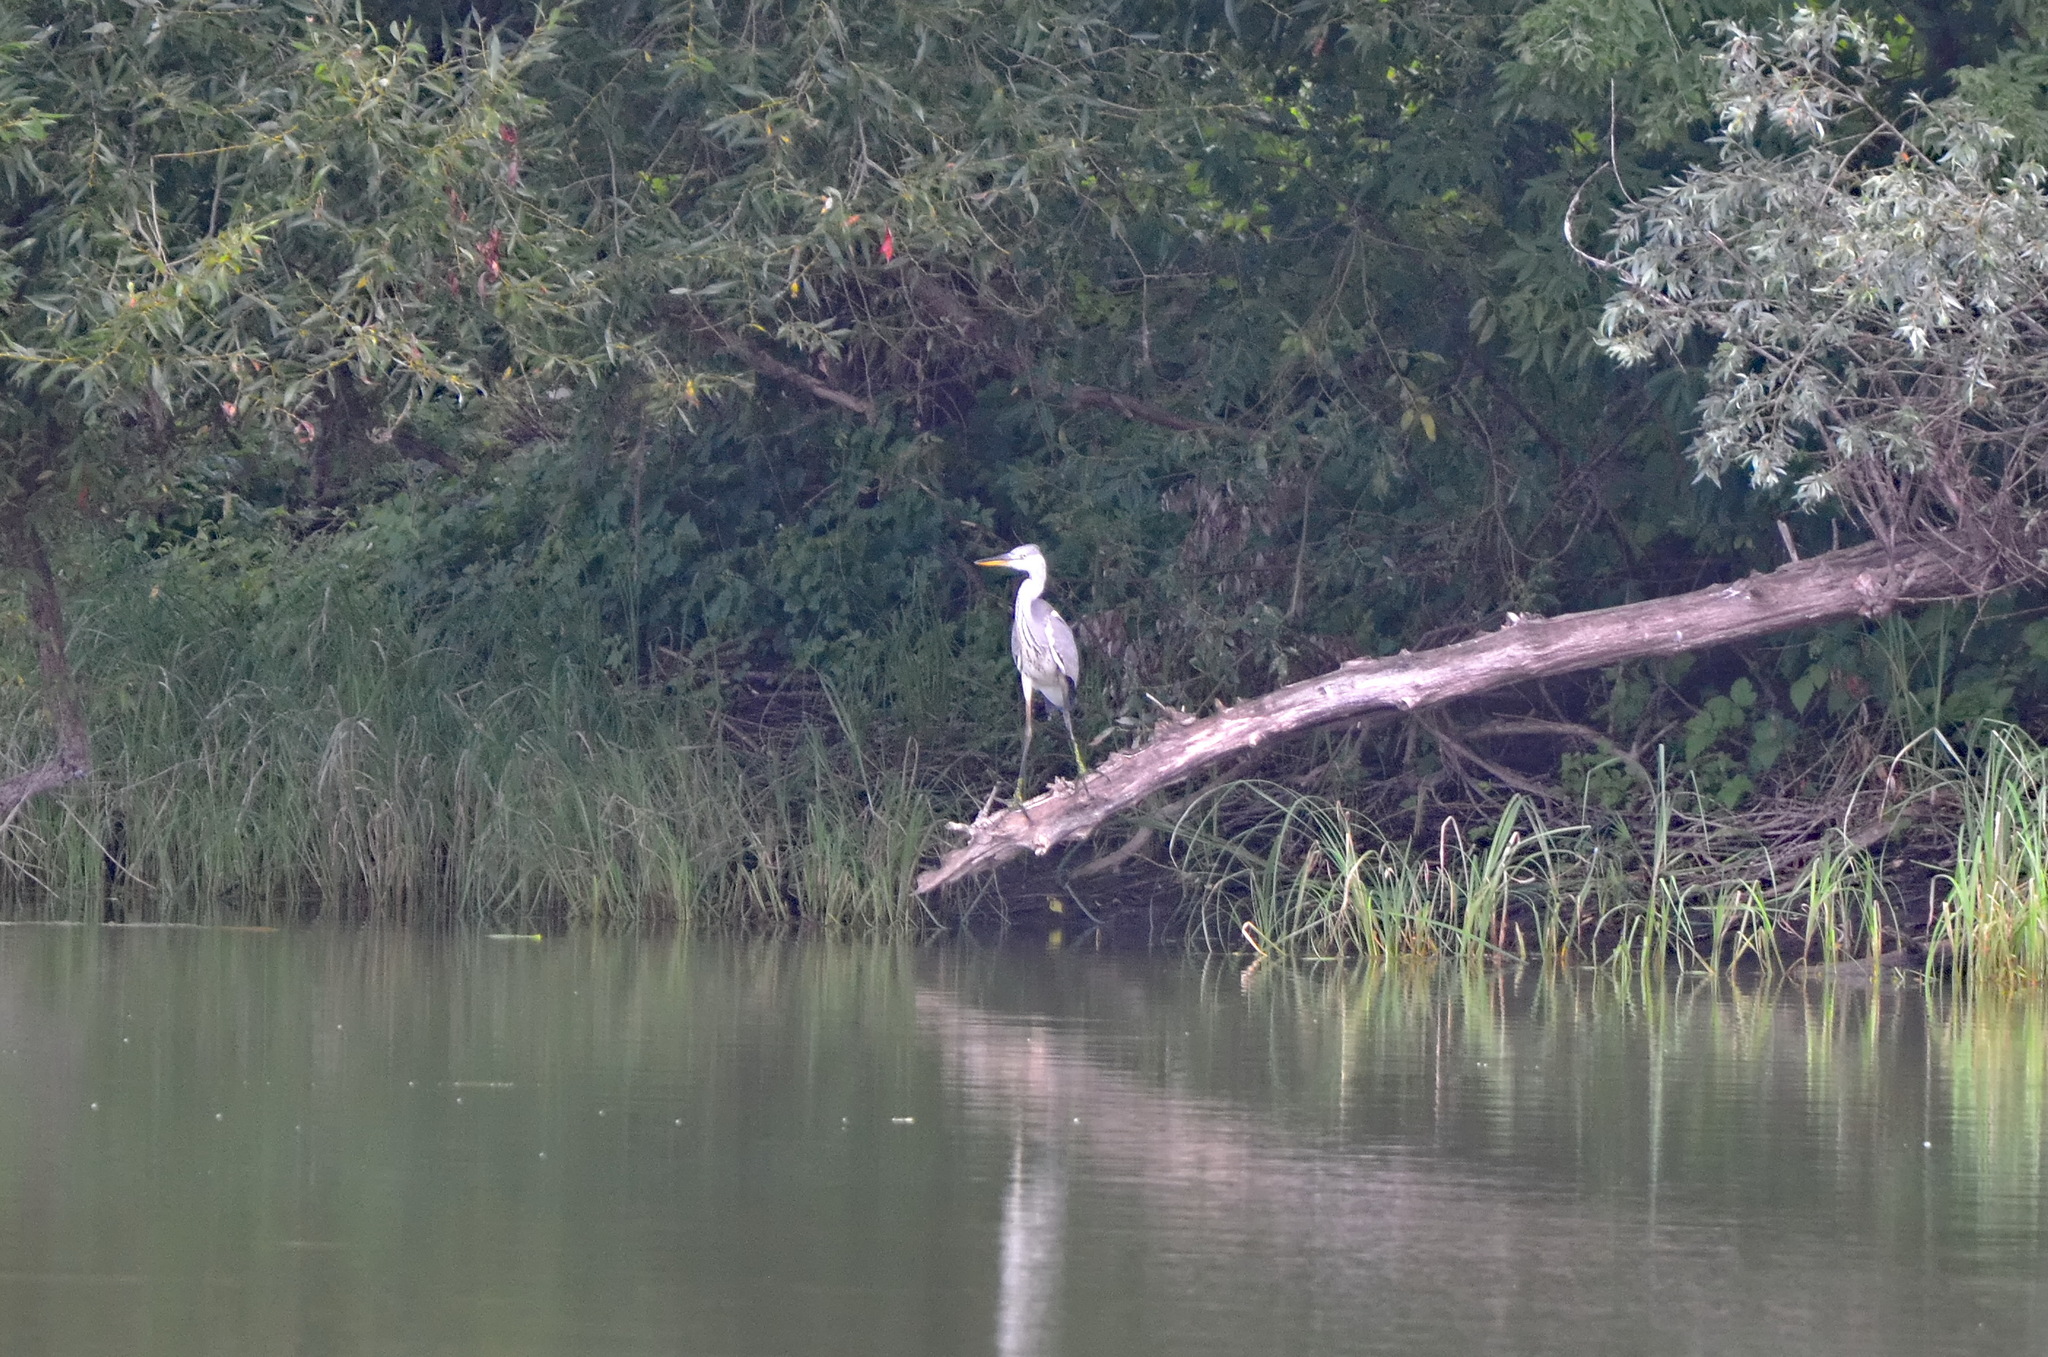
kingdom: Animalia
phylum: Chordata
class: Aves
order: Pelecaniformes
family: Ardeidae
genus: Ardea
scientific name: Ardea cinerea
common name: Grey heron
